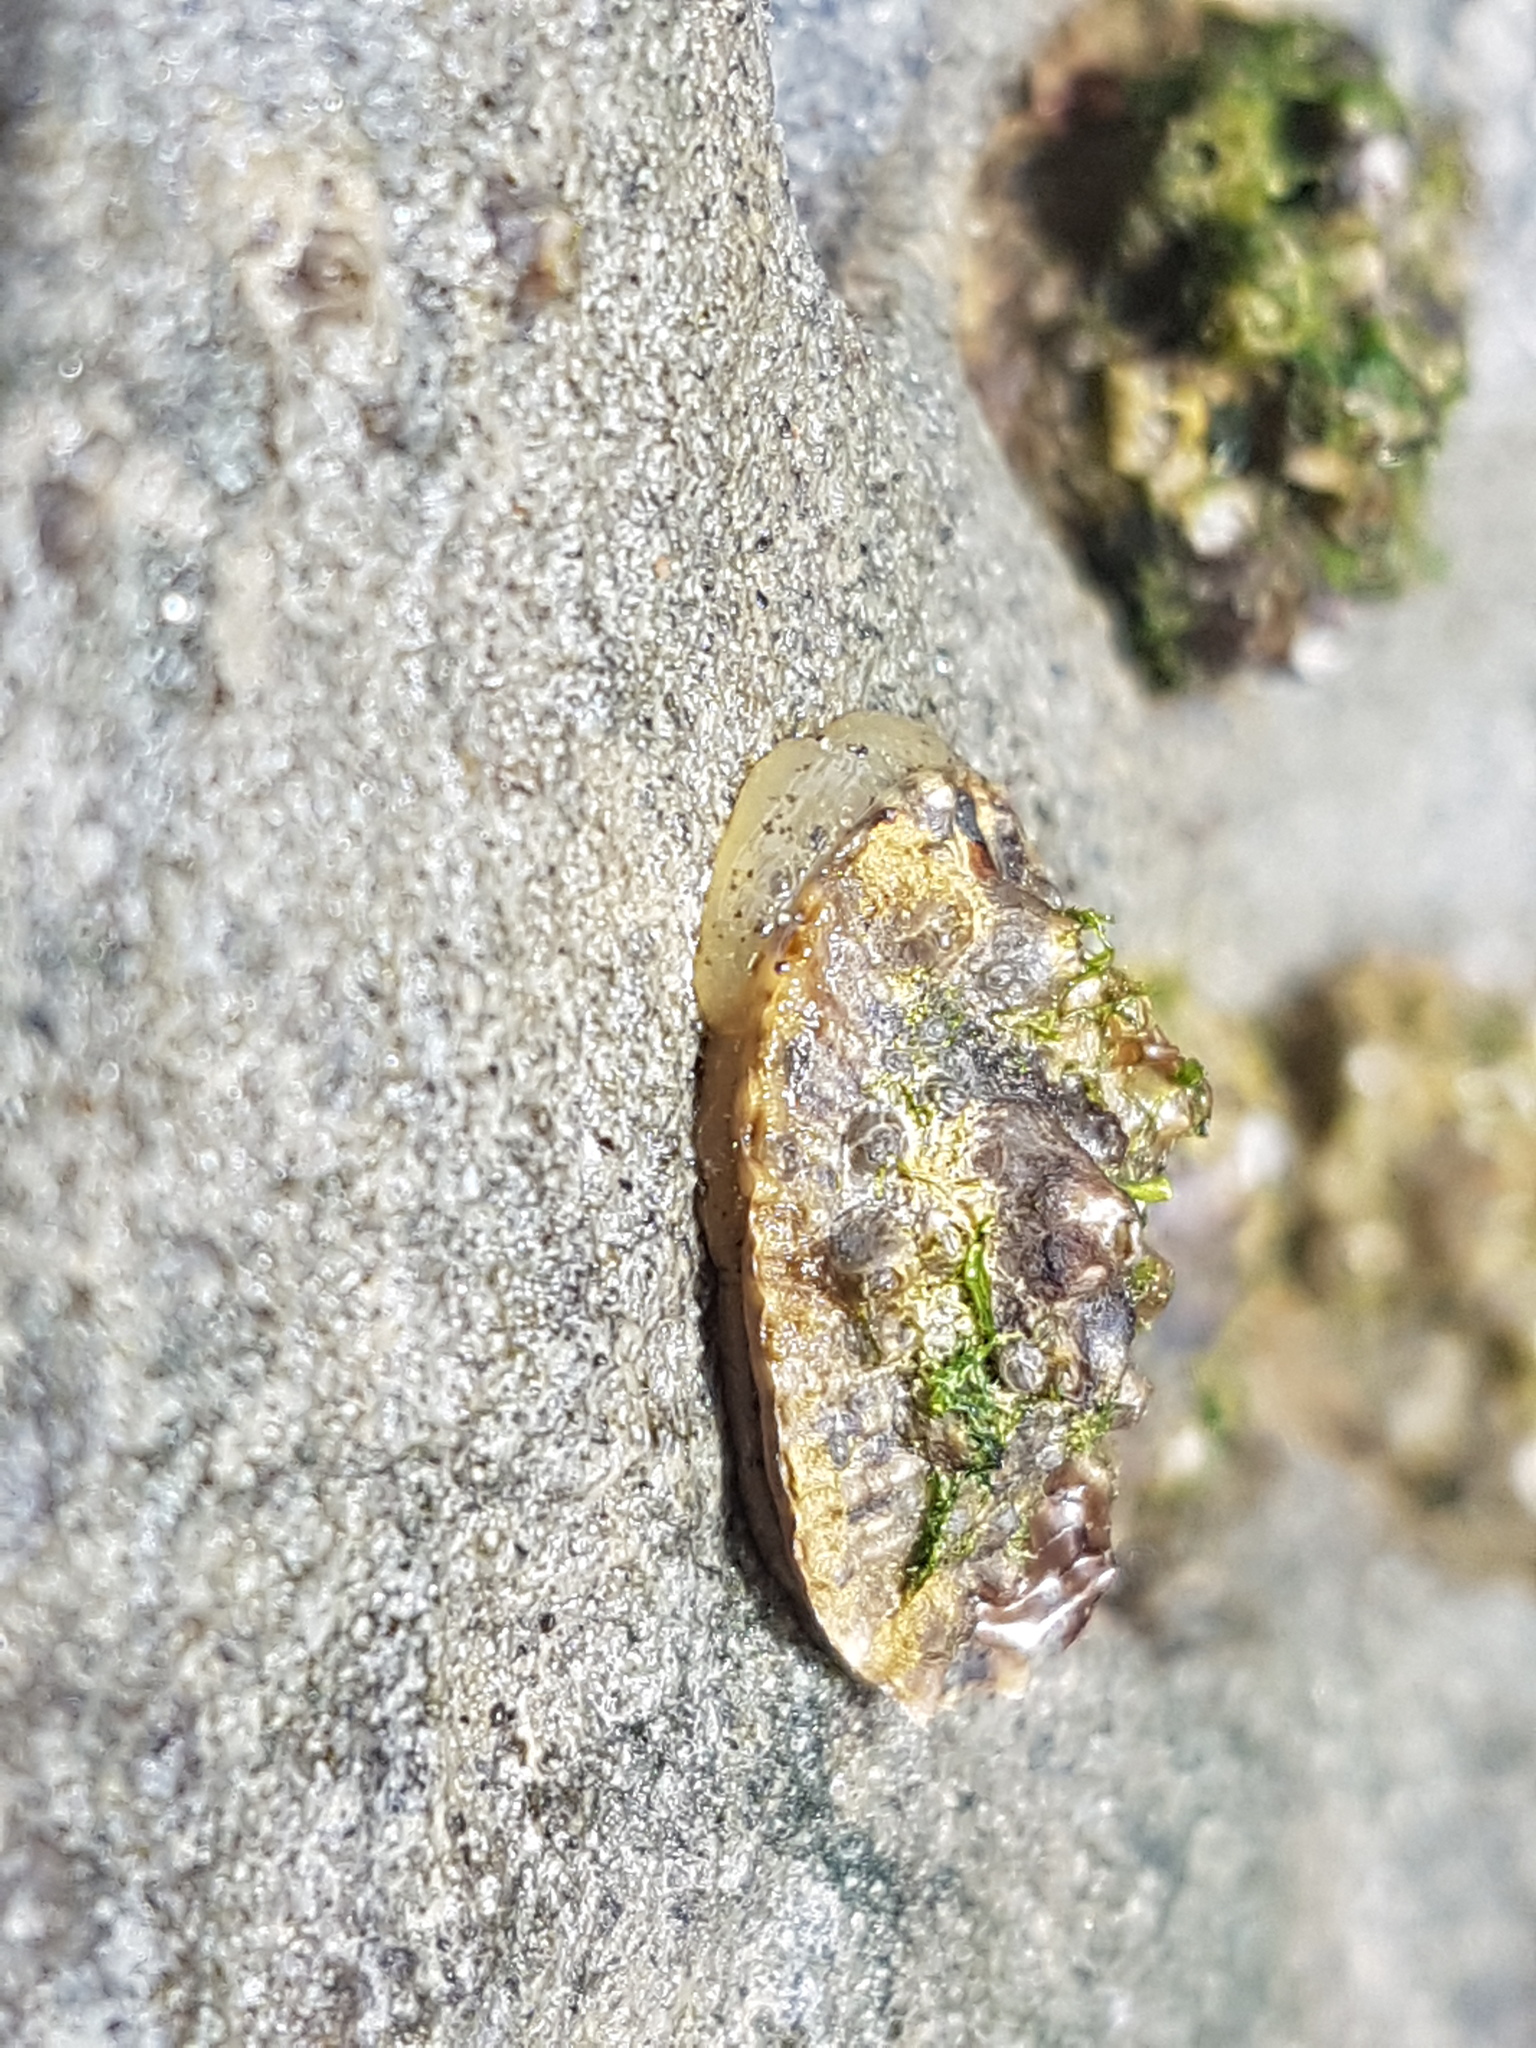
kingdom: Animalia
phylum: Mollusca
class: Gastropoda
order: Siphonariida
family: Siphonariidae
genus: Siphonaria
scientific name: Siphonaria australis
